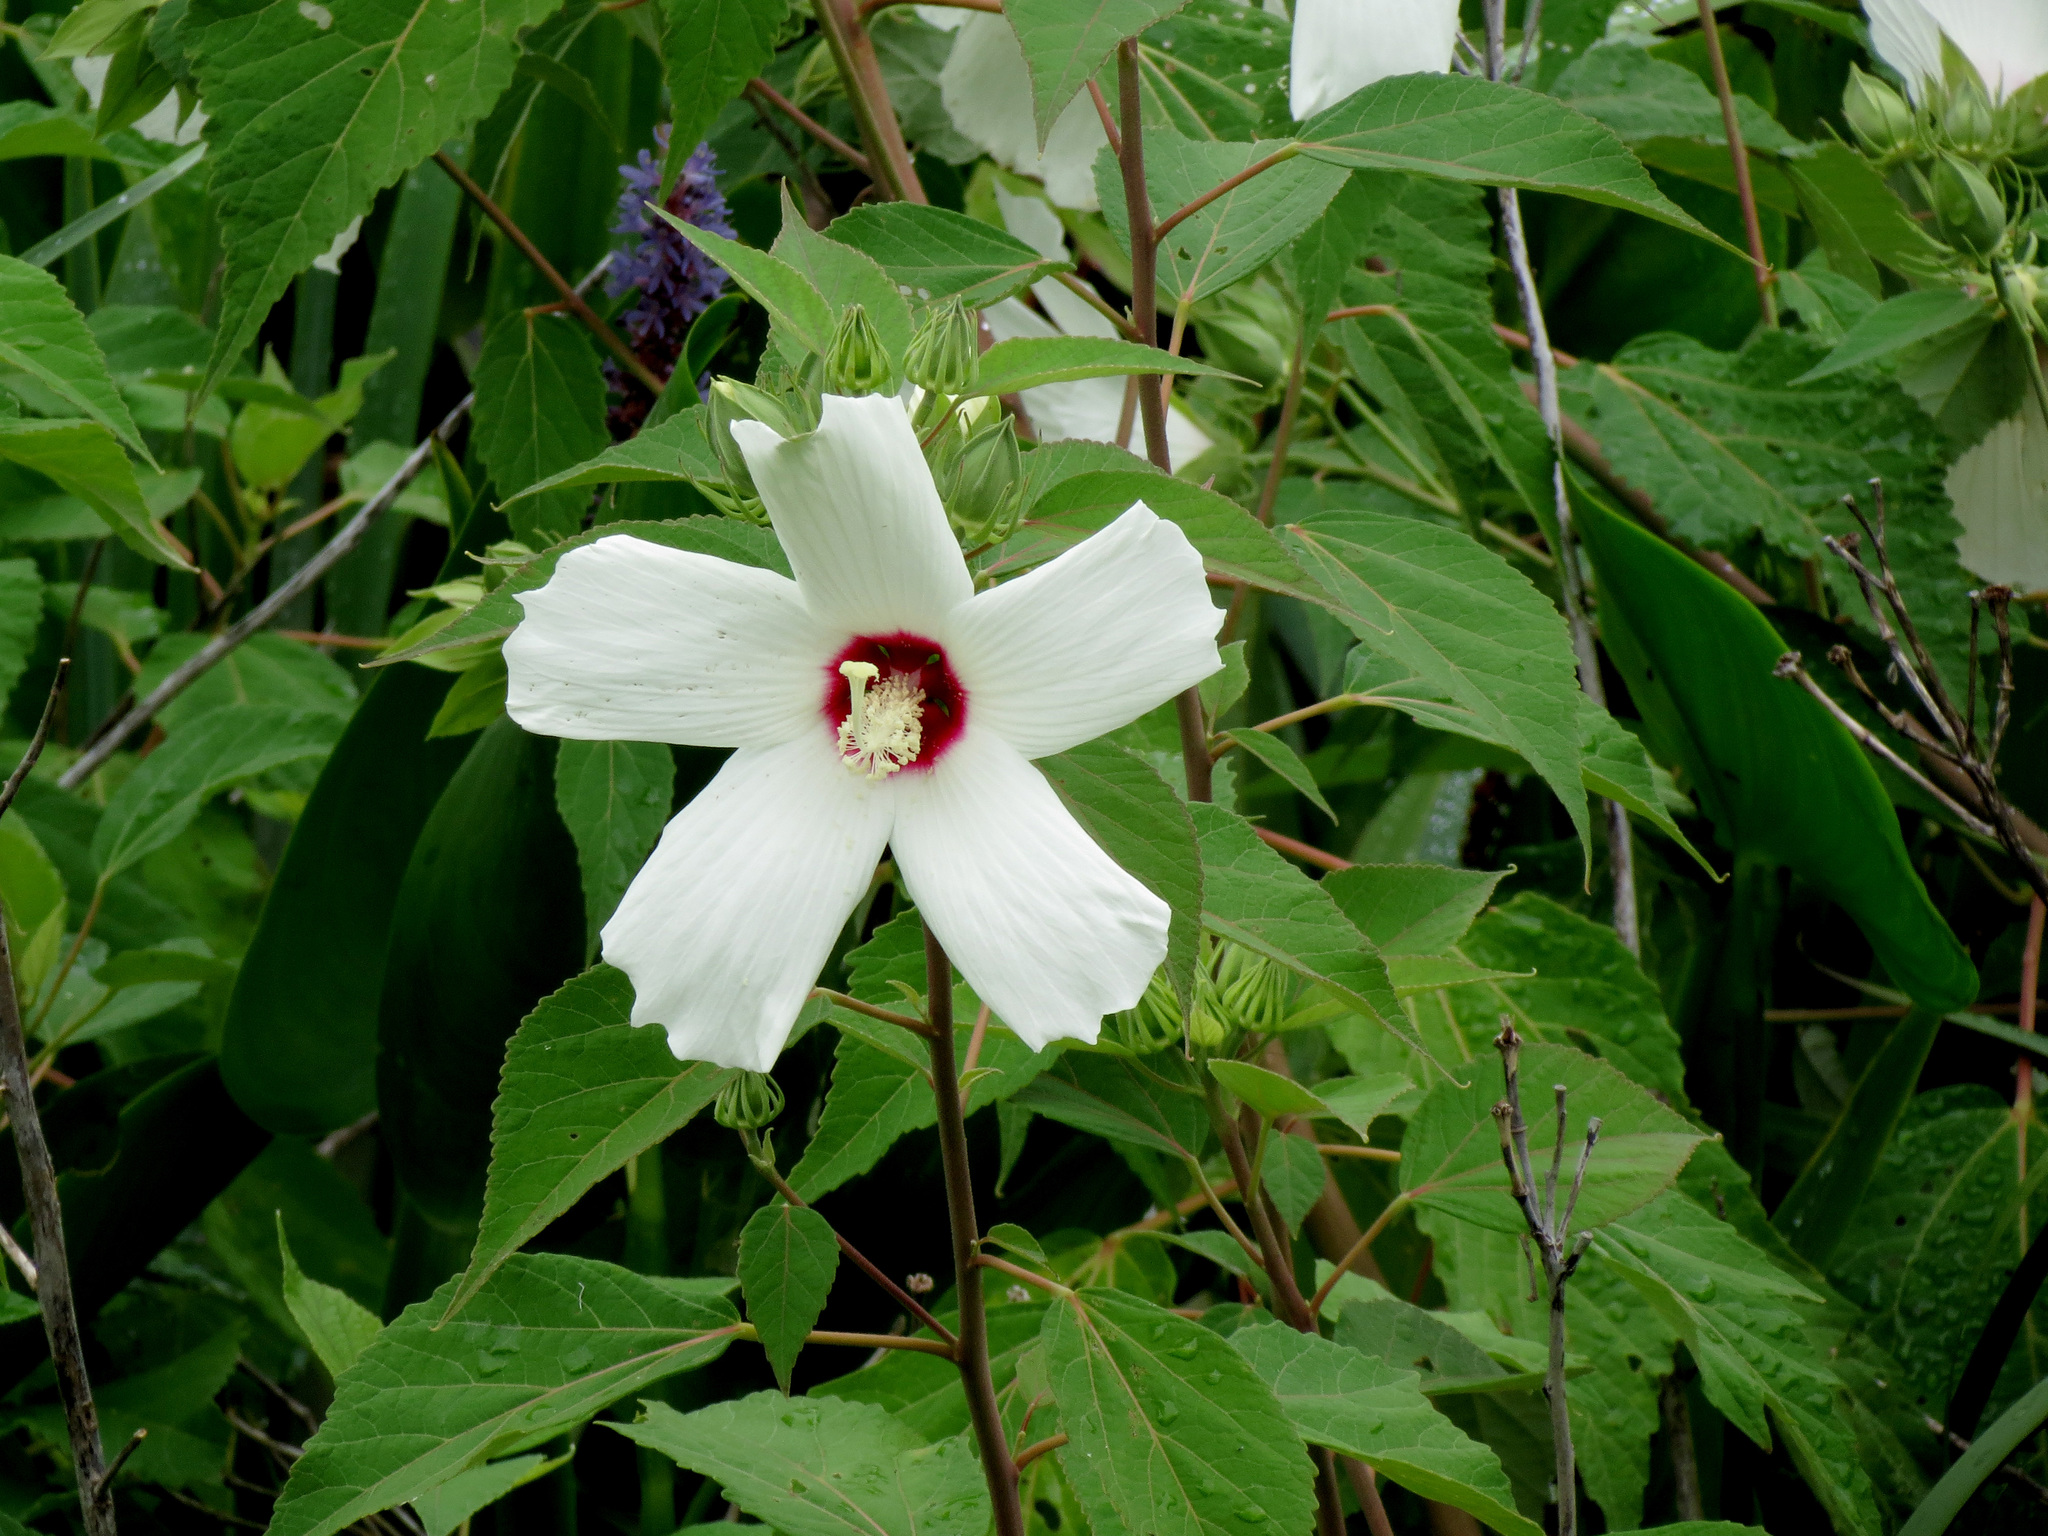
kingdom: Plantae
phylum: Tracheophyta
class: Magnoliopsida
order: Malvales
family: Malvaceae
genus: Hibiscus
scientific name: Hibiscus moscheutos
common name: Common rose-mallow
